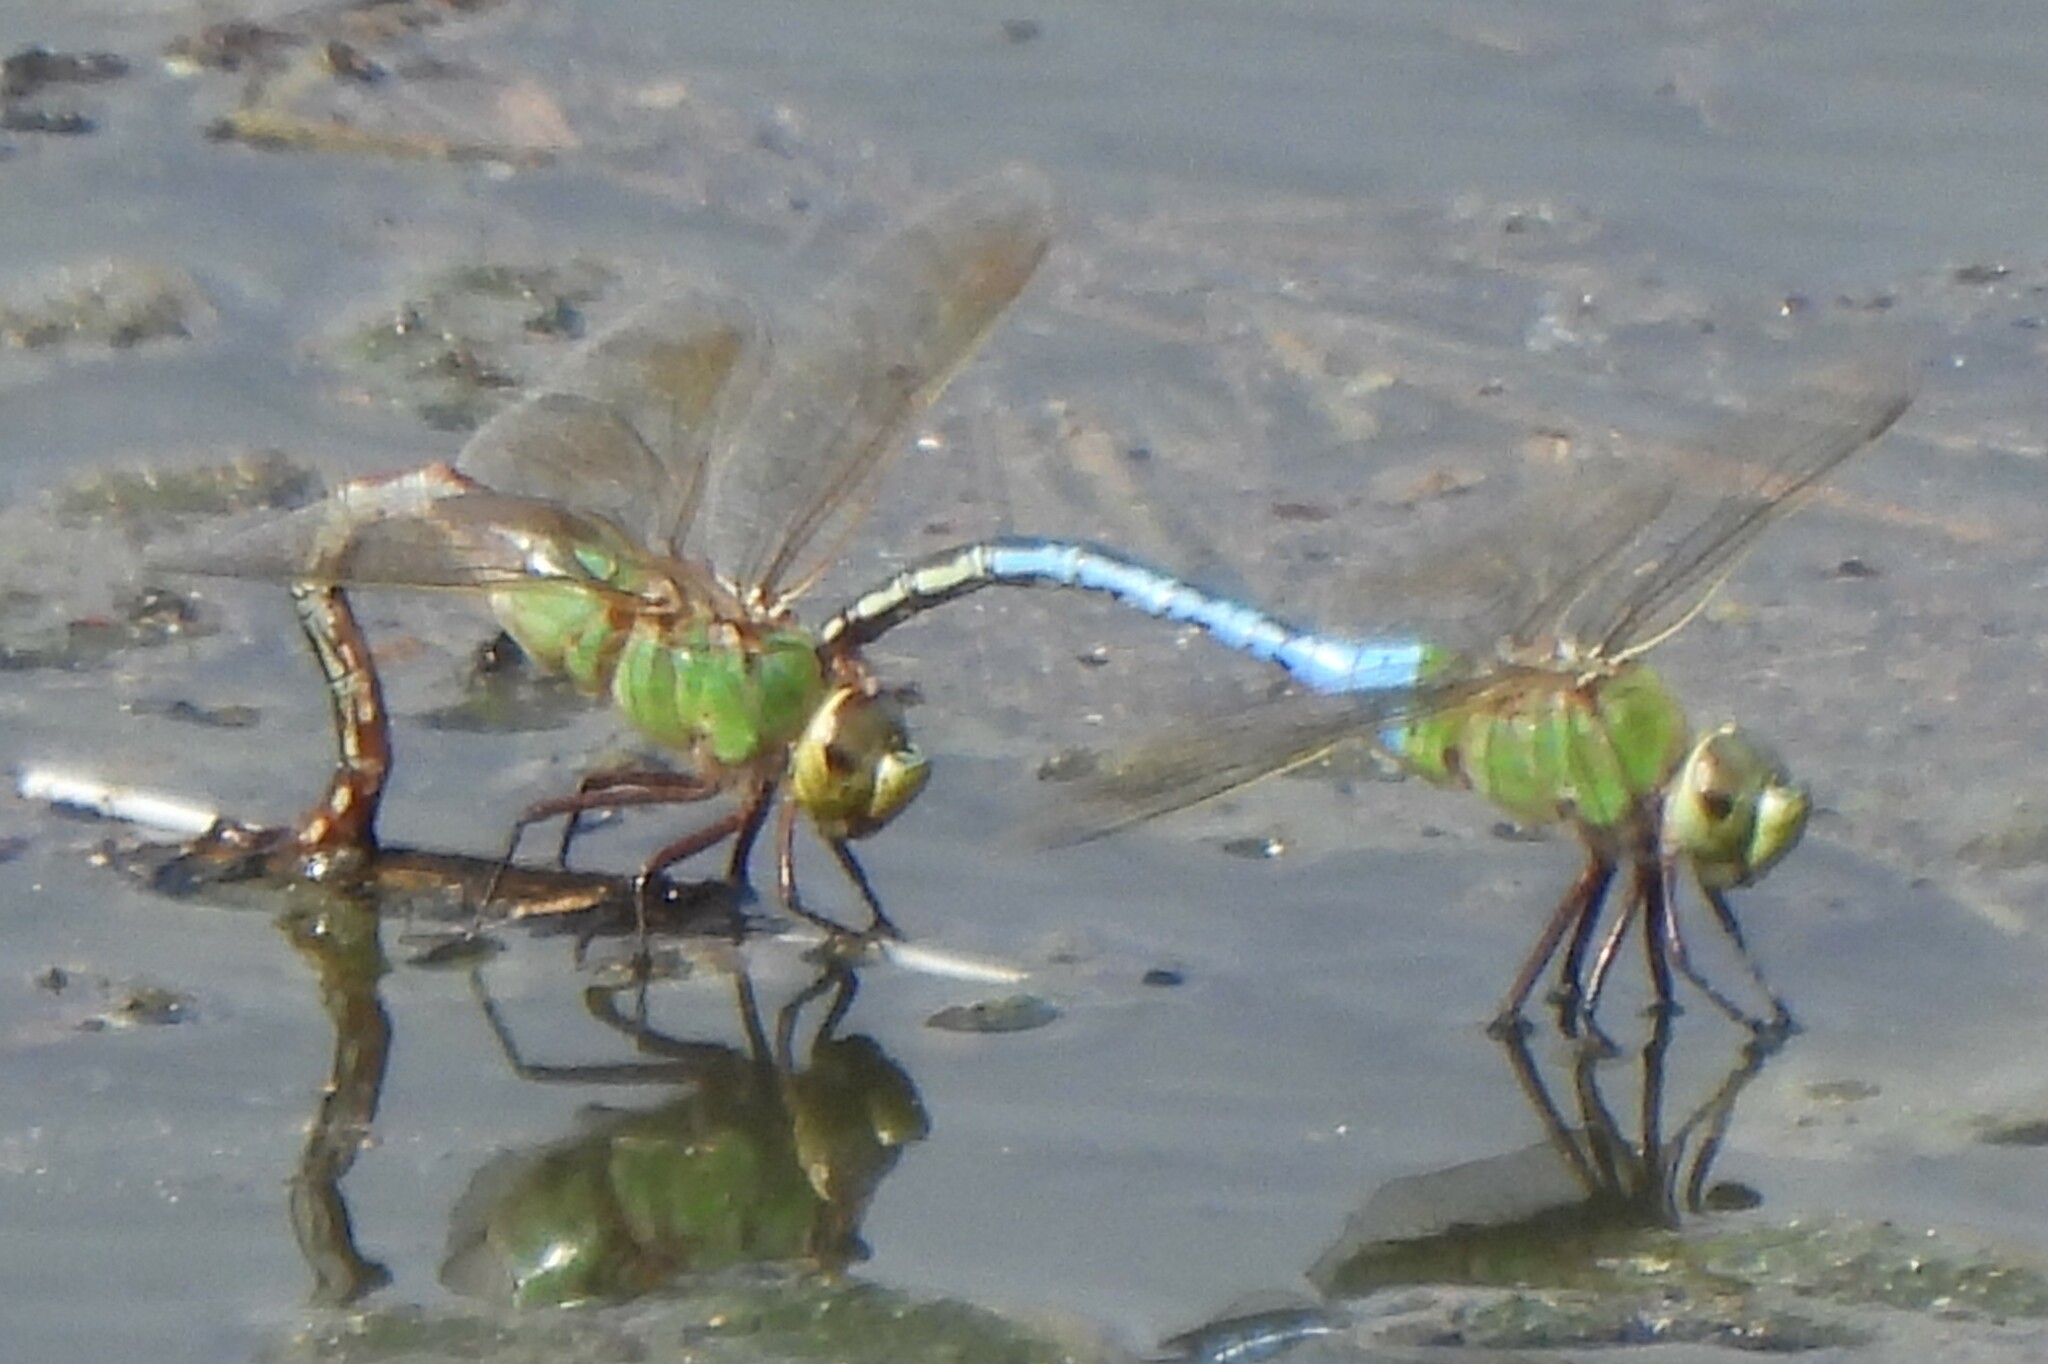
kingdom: Animalia
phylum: Arthropoda
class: Insecta
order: Odonata
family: Aeshnidae
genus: Anax
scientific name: Anax junius
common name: Common green darner
